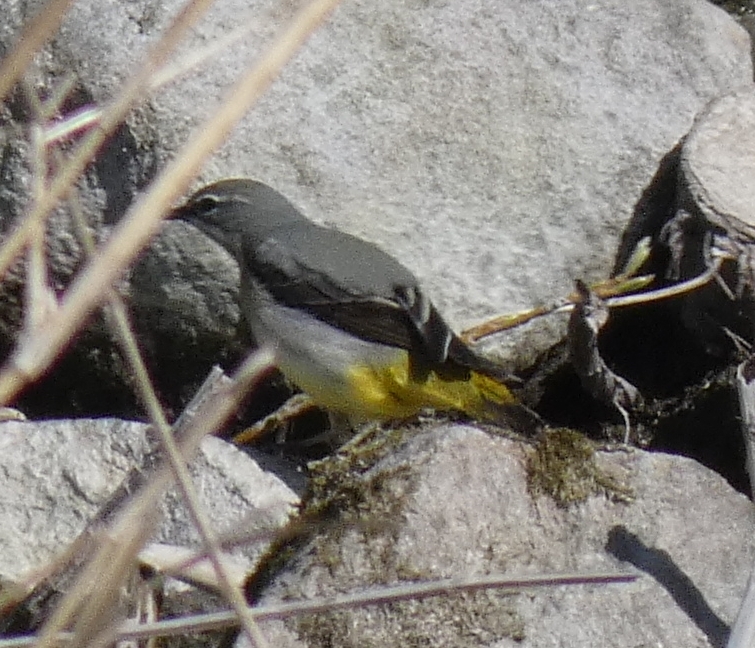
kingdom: Animalia
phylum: Chordata
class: Aves
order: Passeriformes
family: Motacillidae
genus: Motacilla
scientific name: Motacilla cinerea
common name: Grey wagtail
